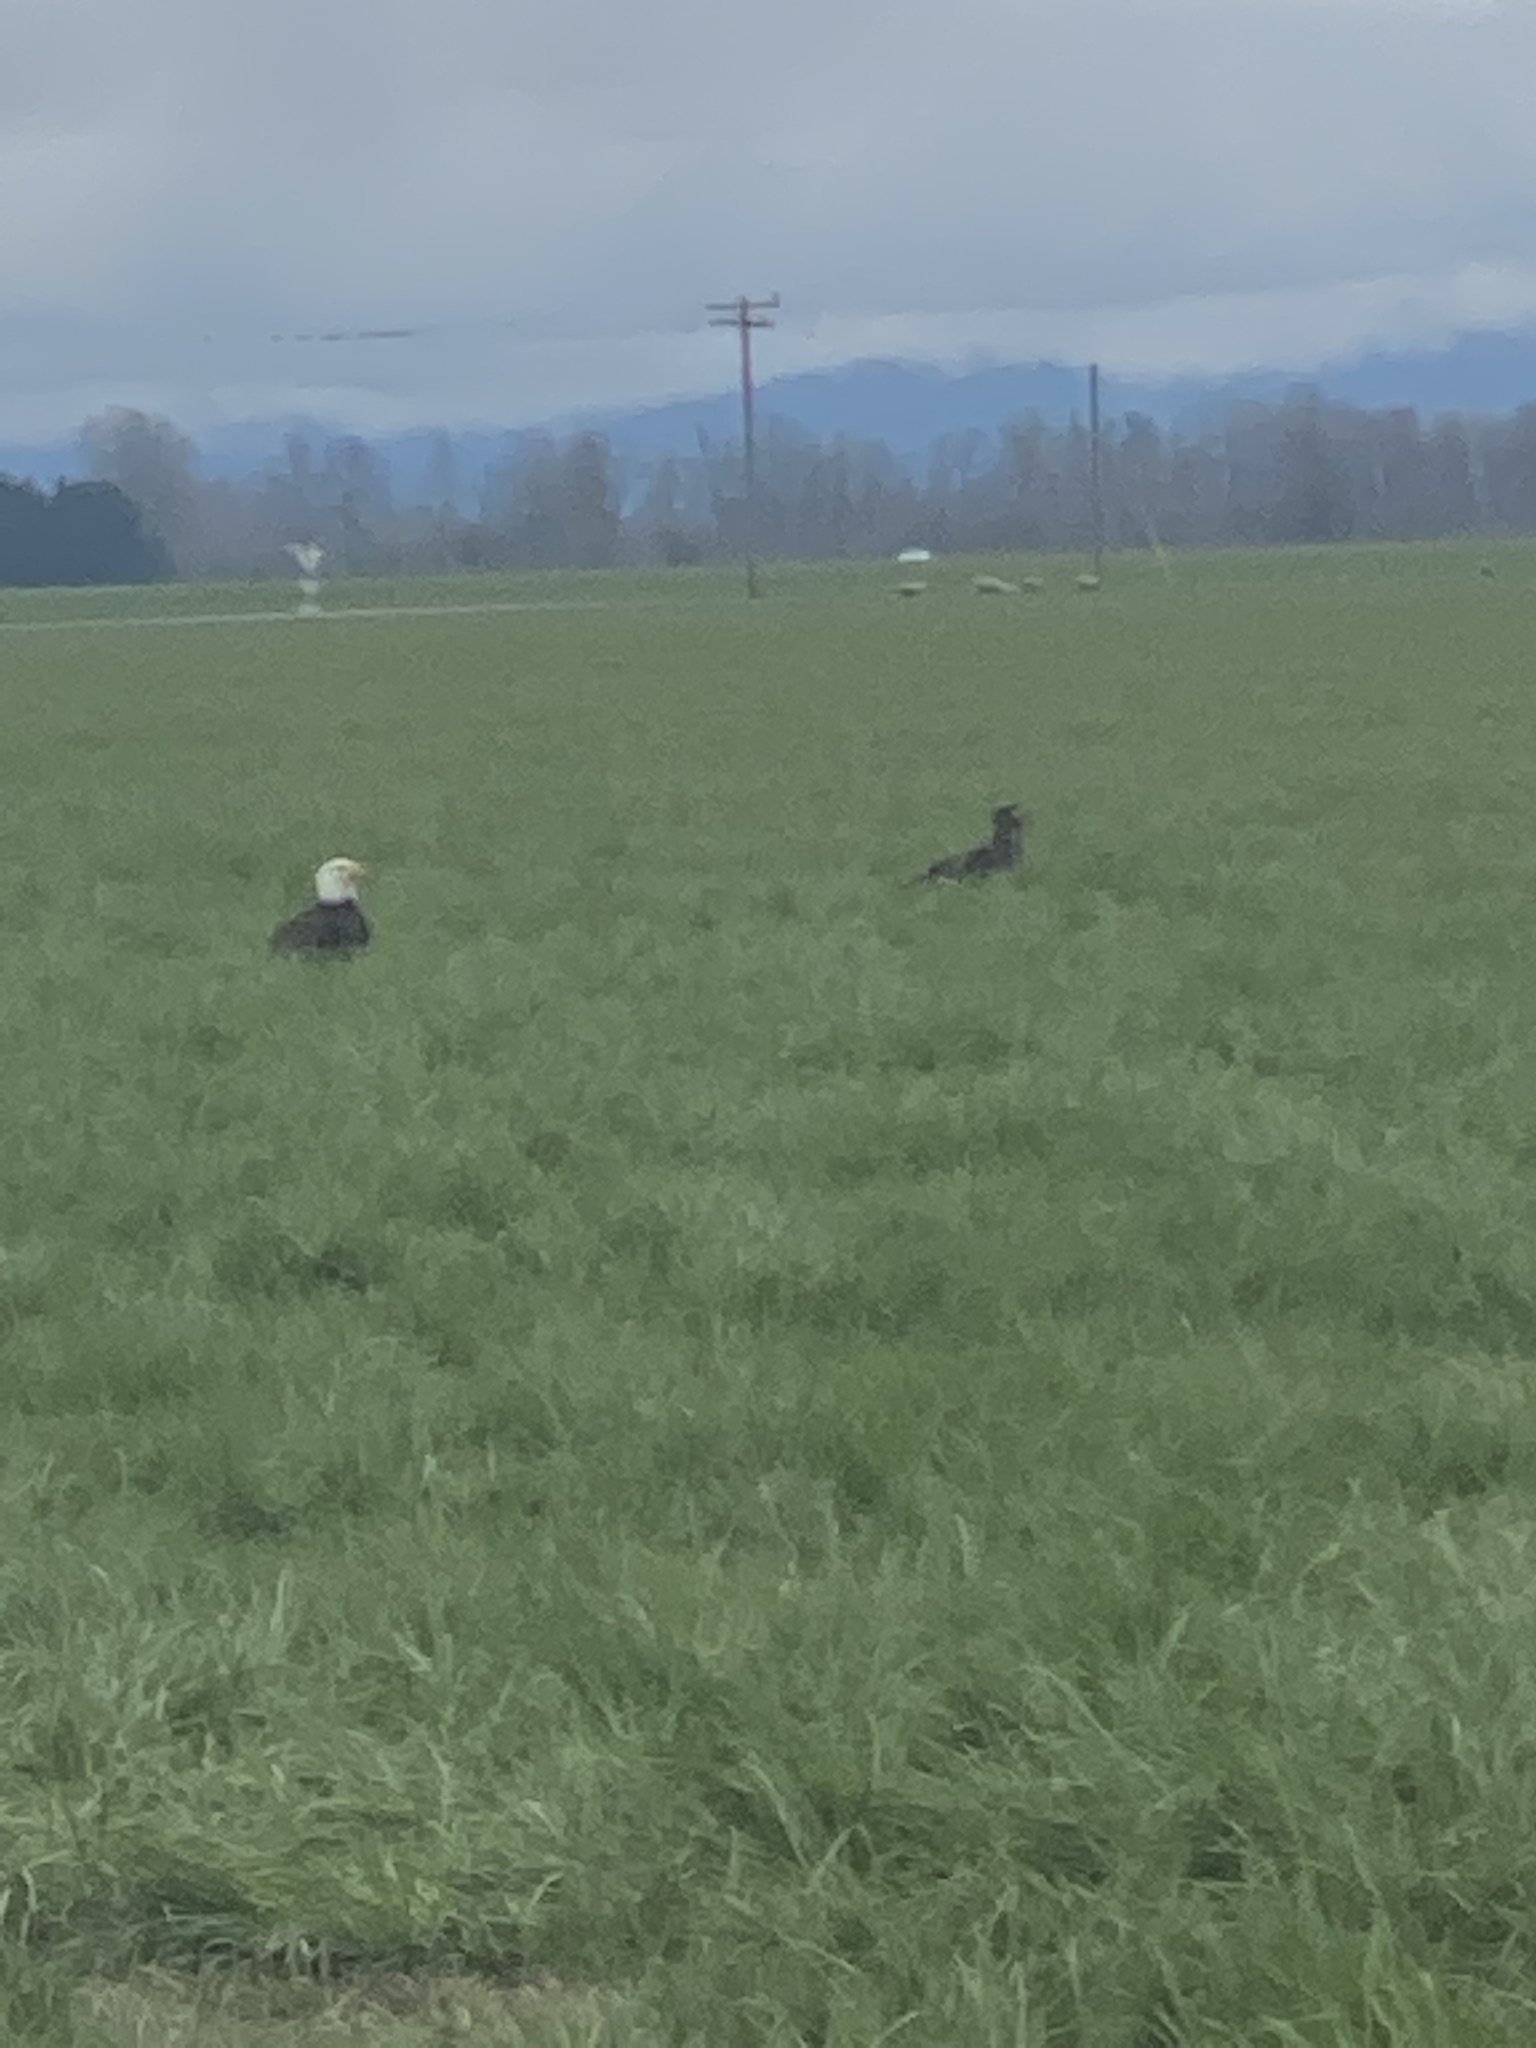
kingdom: Animalia
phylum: Chordata
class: Aves
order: Accipitriformes
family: Accipitridae
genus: Haliaeetus
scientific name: Haliaeetus leucocephalus
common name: Bald eagle
